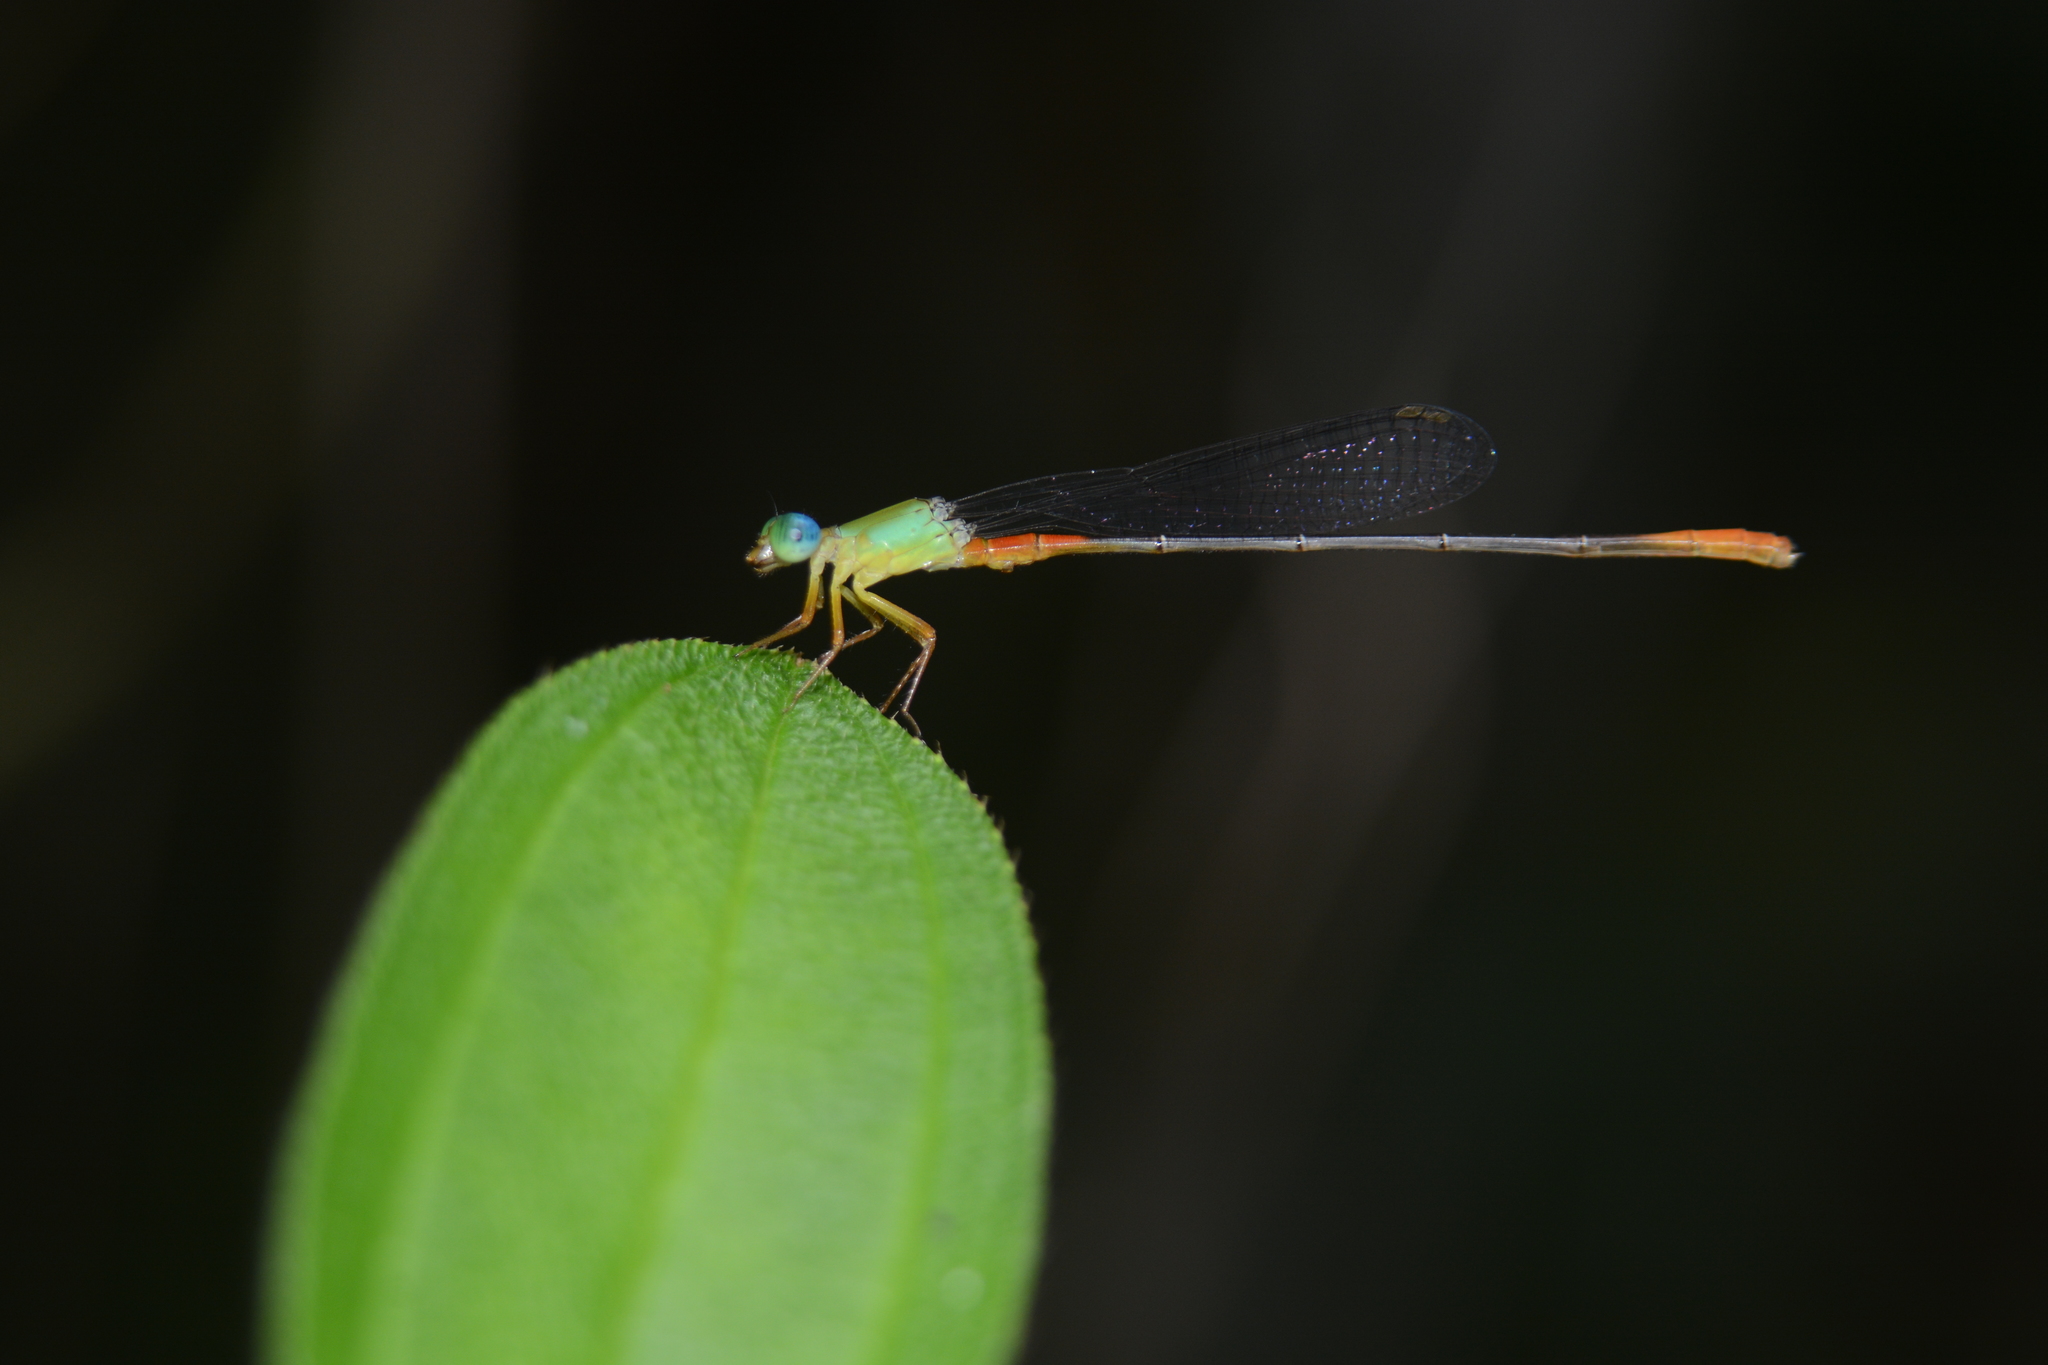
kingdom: Animalia
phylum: Arthropoda
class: Insecta
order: Odonata
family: Coenagrionidae
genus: Ceriagrion
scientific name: Ceriagrion cerinorubellum
